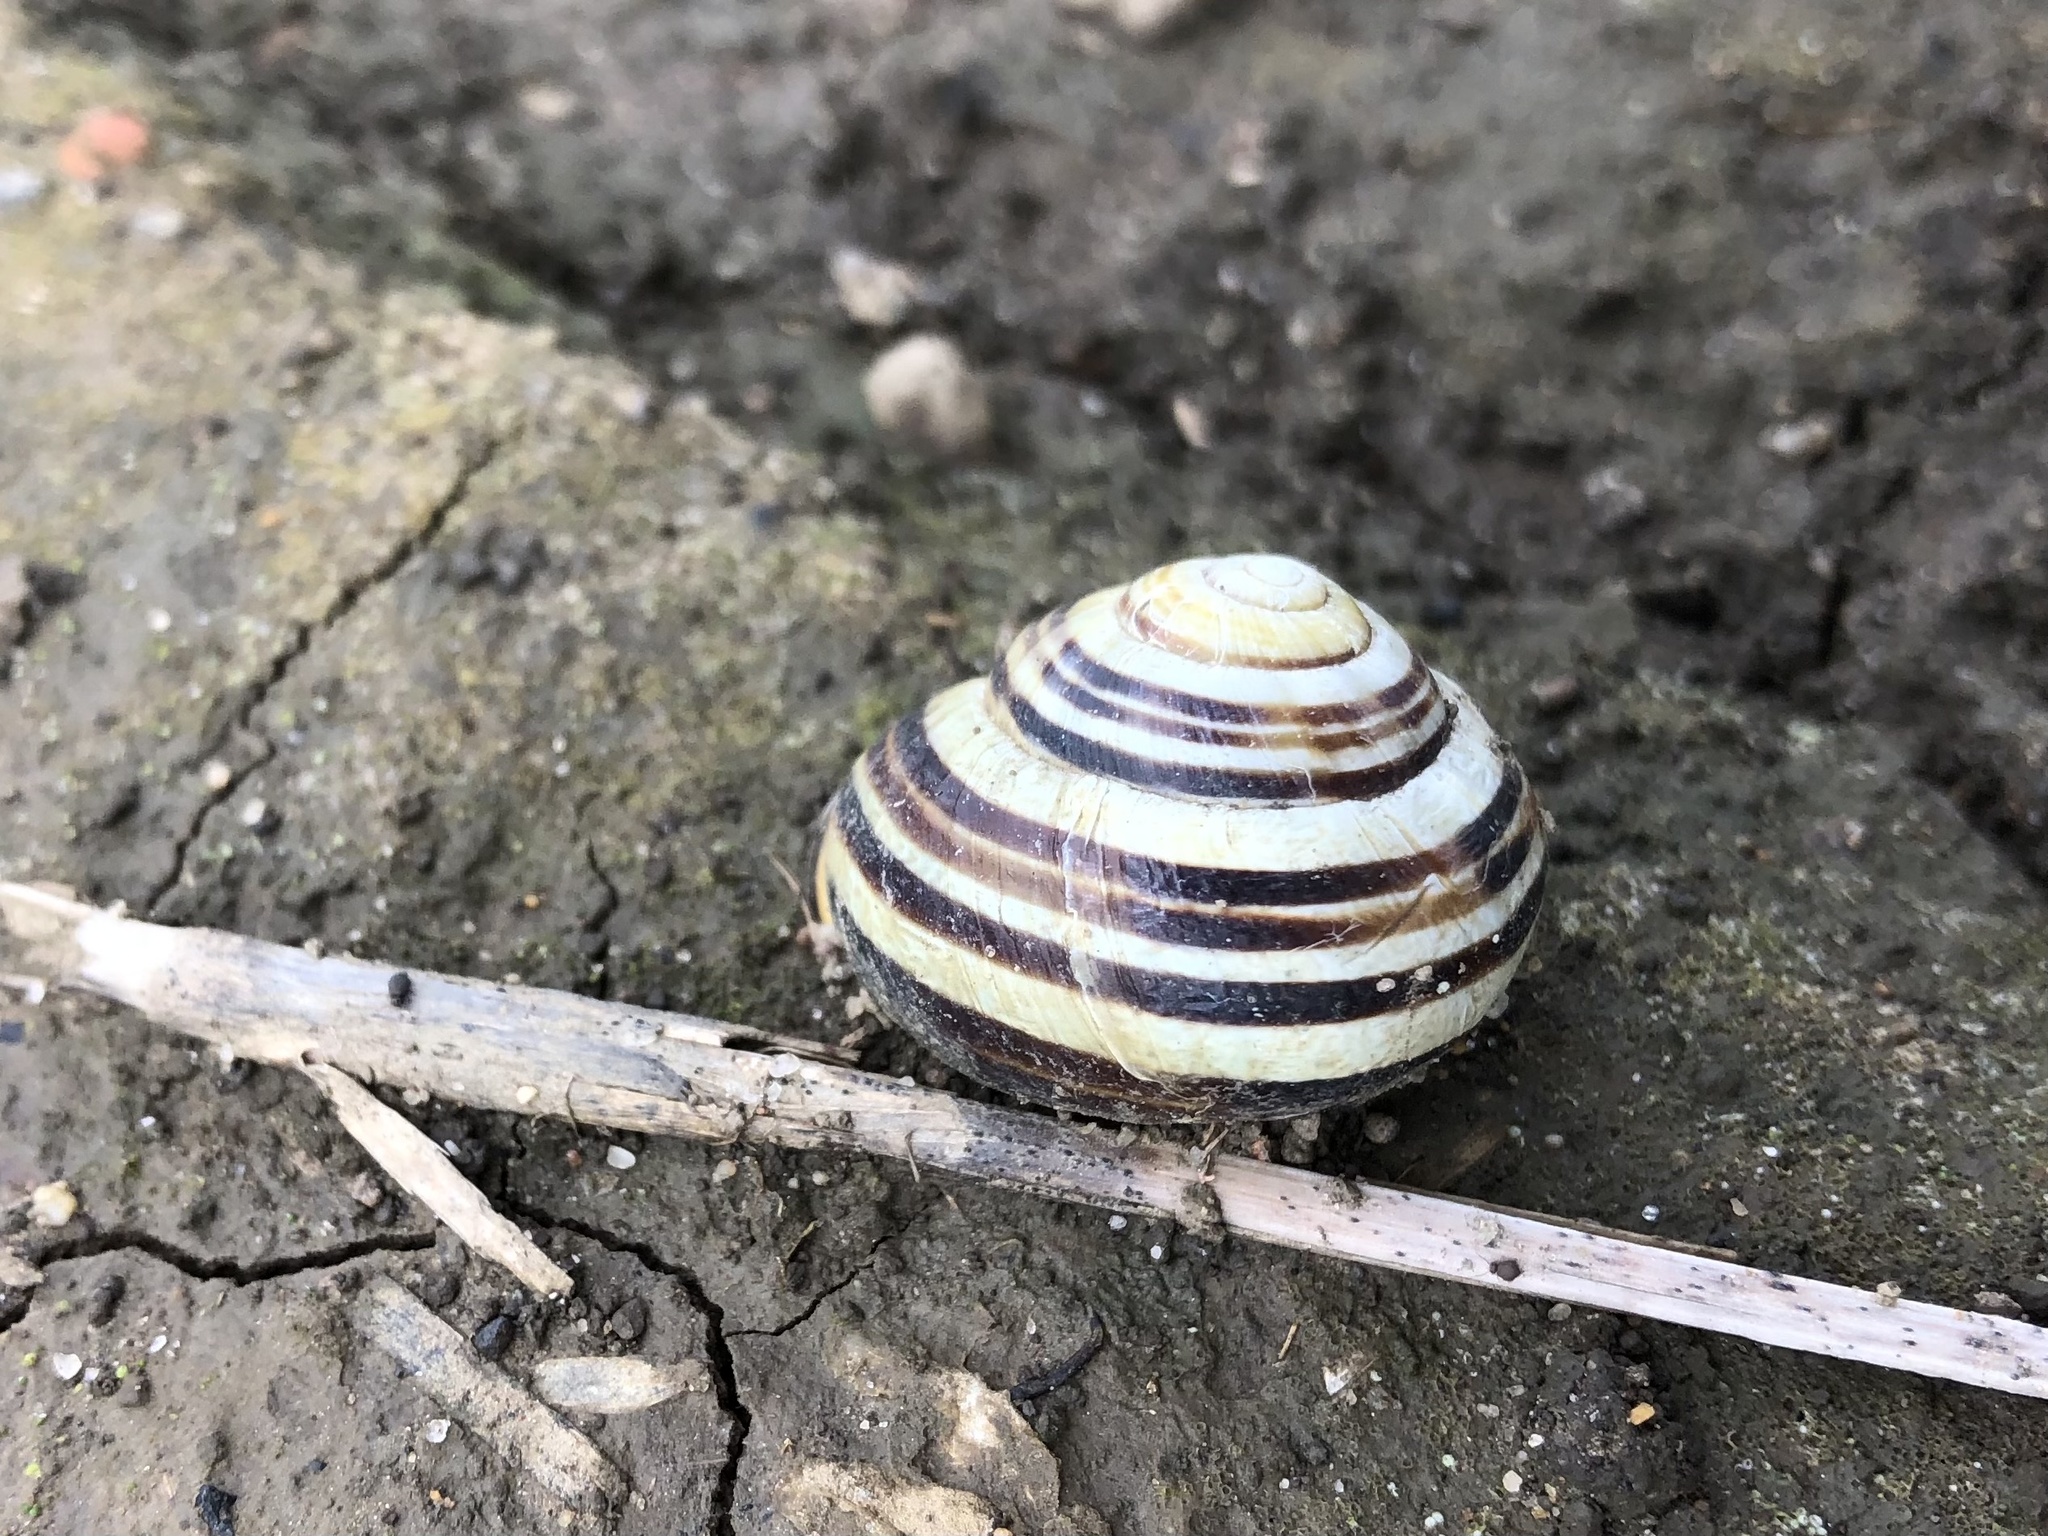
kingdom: Animalia
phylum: Mollusca
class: Gastropoda
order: Stylommatophora
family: Helicidae
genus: Cepaea
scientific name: Cepaea nemoralis
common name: Grovesnail
